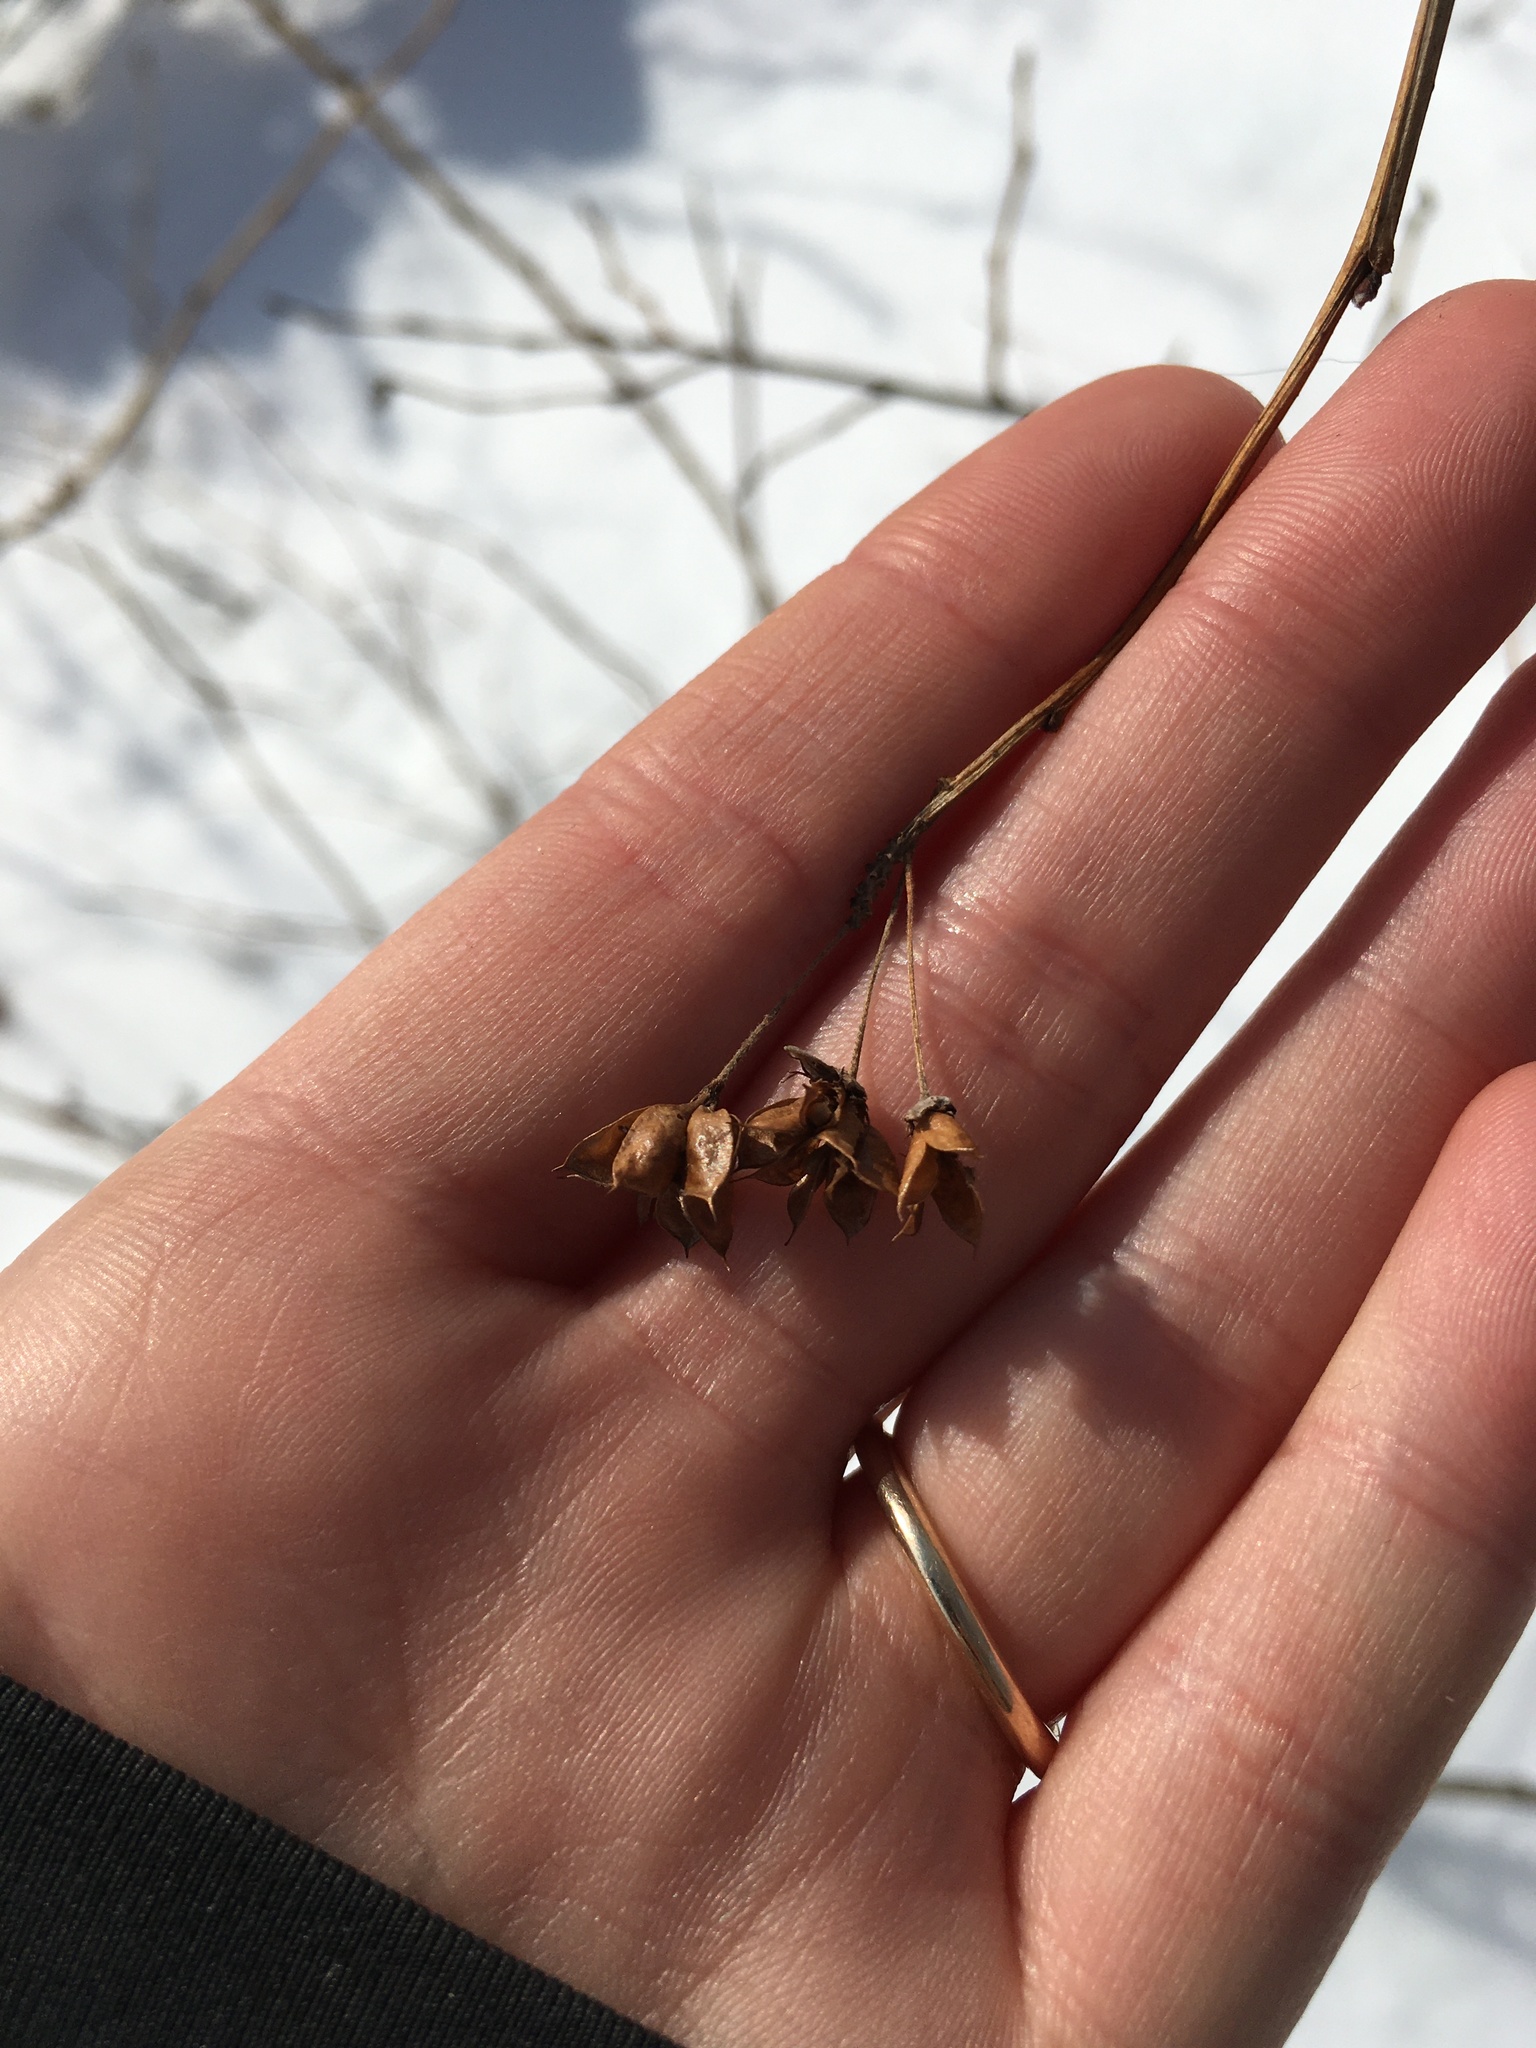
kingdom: Plantae
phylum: Tracheophyta
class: Magnoliopsida
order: Rosales
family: Rosaceae
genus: Physocarpus
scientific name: Physocarpus opulifolius
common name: Ninebark
